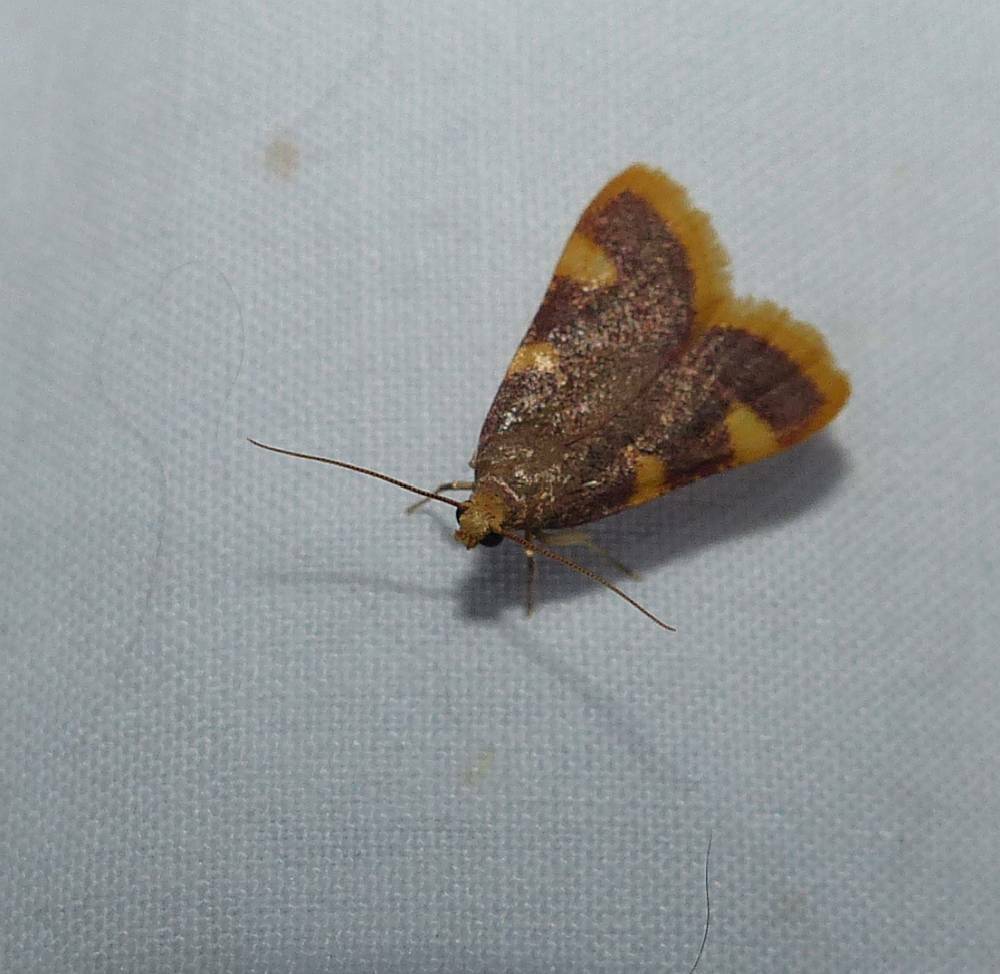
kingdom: Animalia
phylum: Arthropoda
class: Insecta
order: Lepidoptera
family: Pyralidae
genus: Hypsopygia
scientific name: Hypsopygia costalis
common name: Gold triangle
